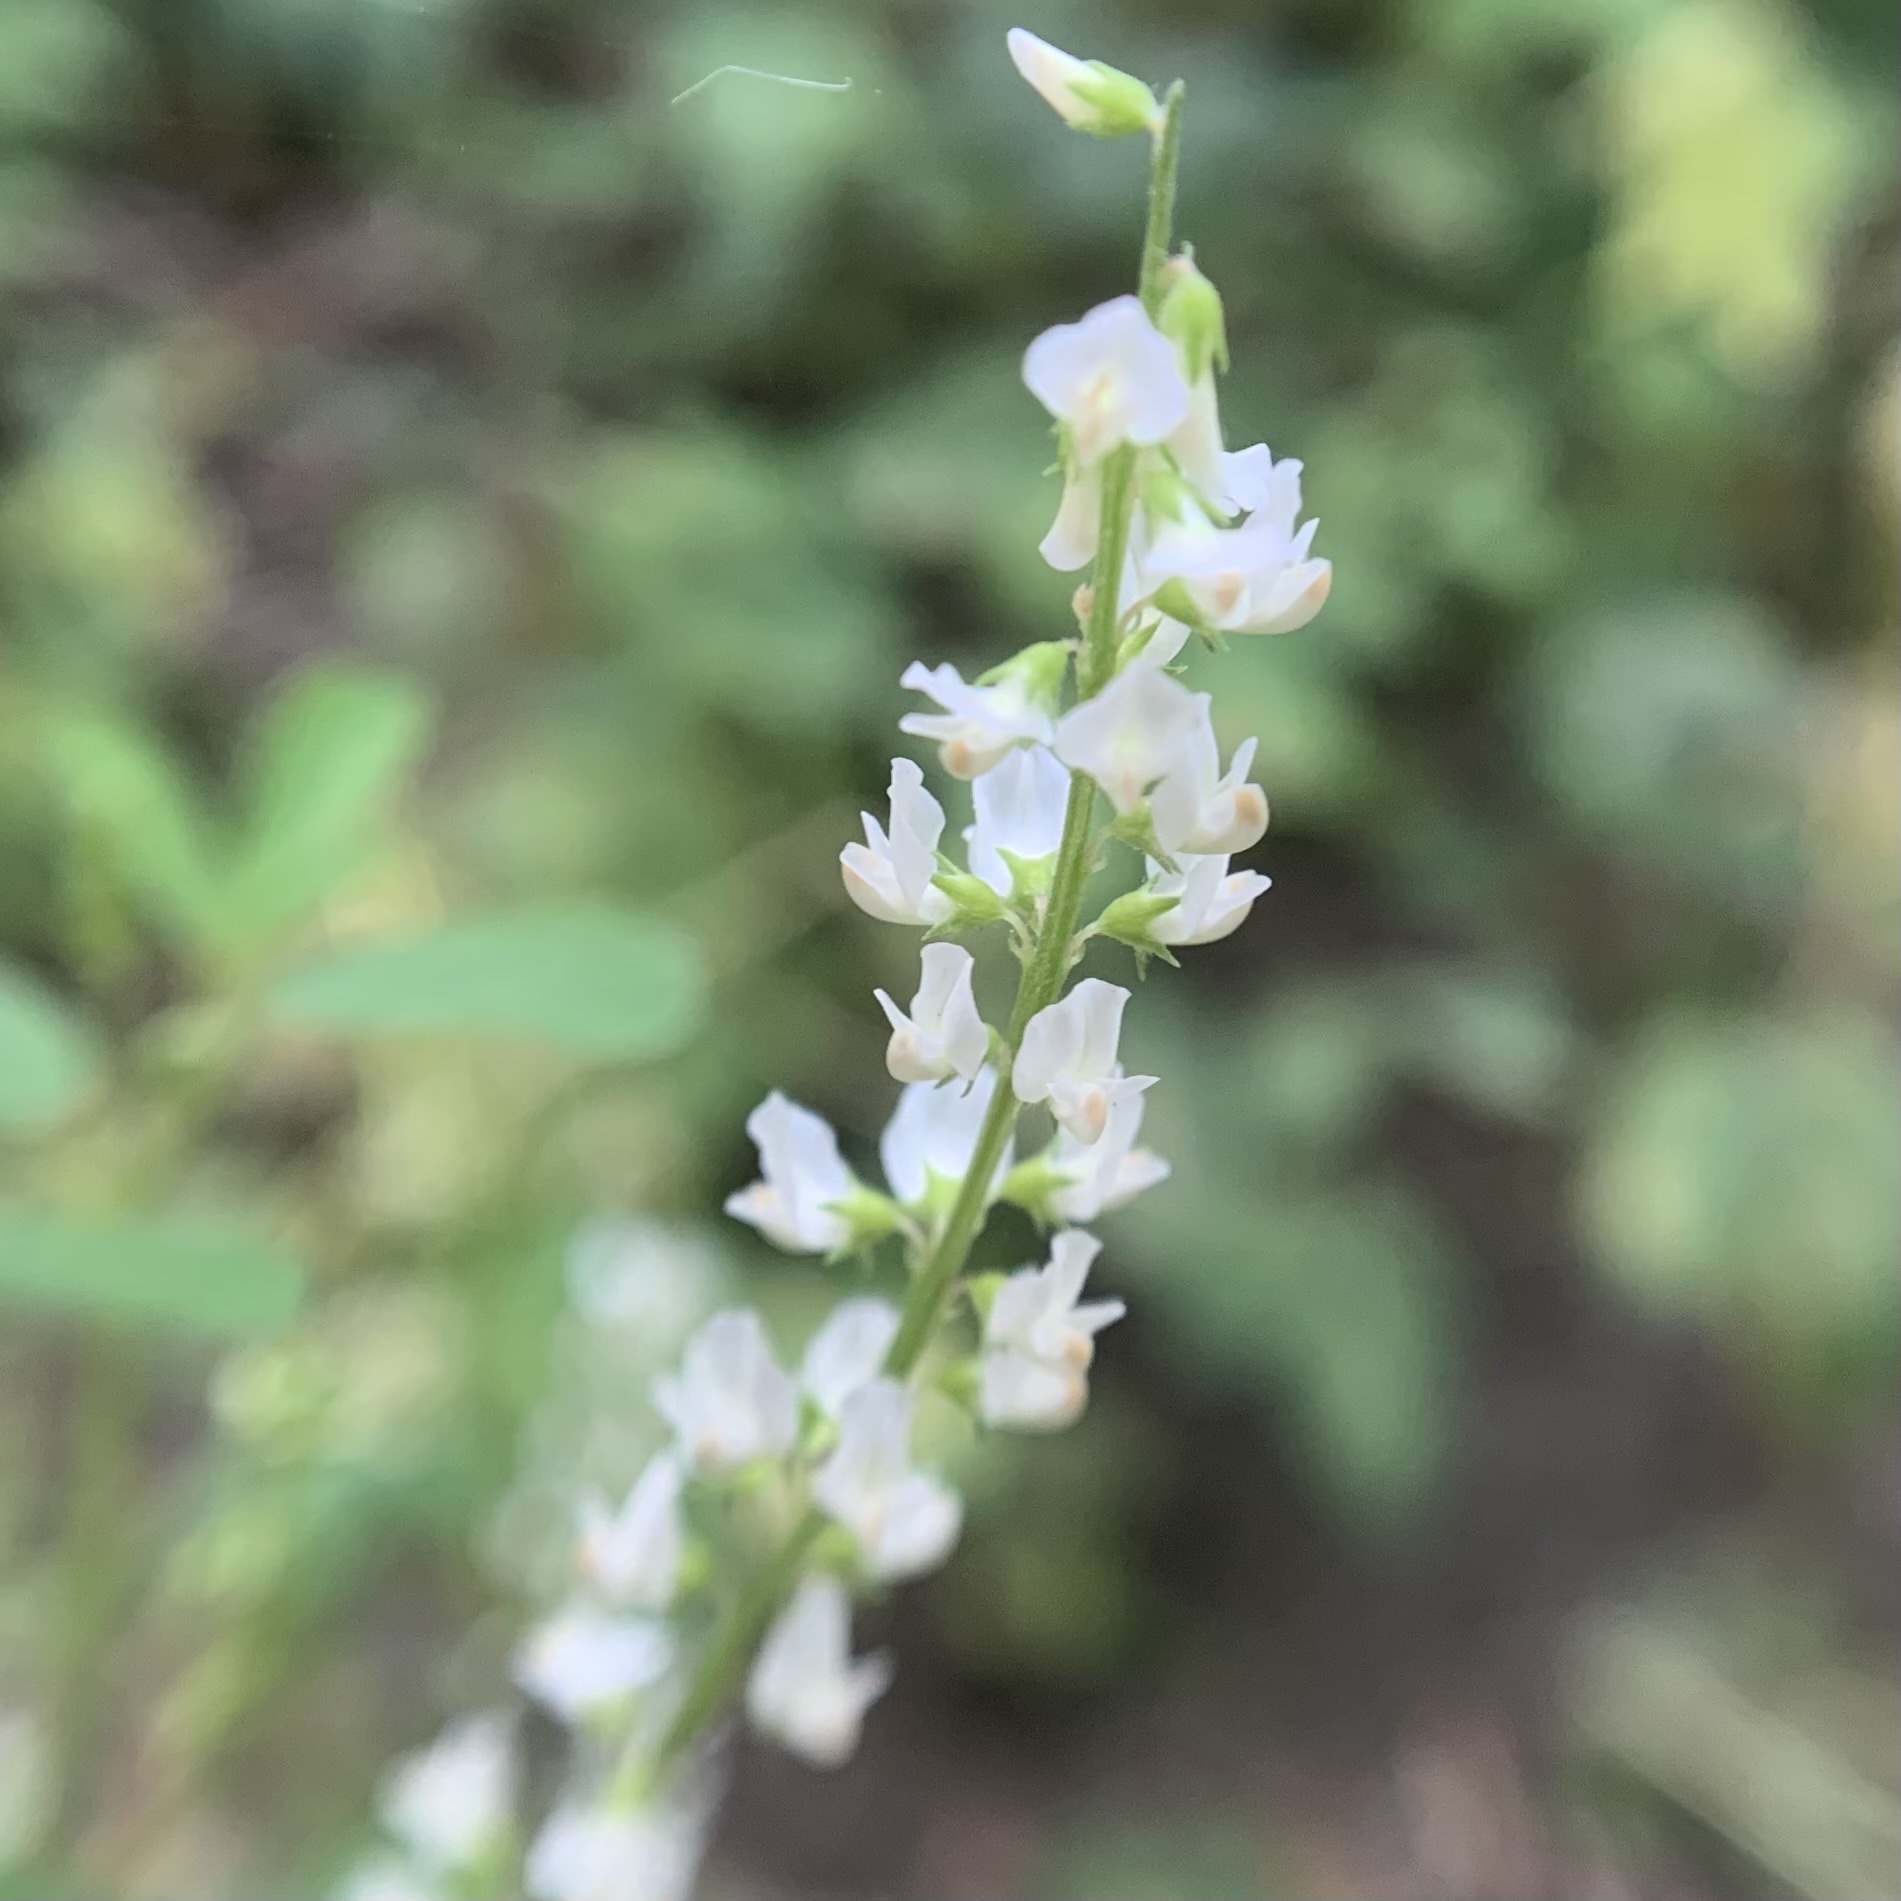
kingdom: Plantae
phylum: Tracheophyta
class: Magnoliopsida
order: Fabales
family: Fabaceae
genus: Melilotus
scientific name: Melilotus albus
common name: White melilot
